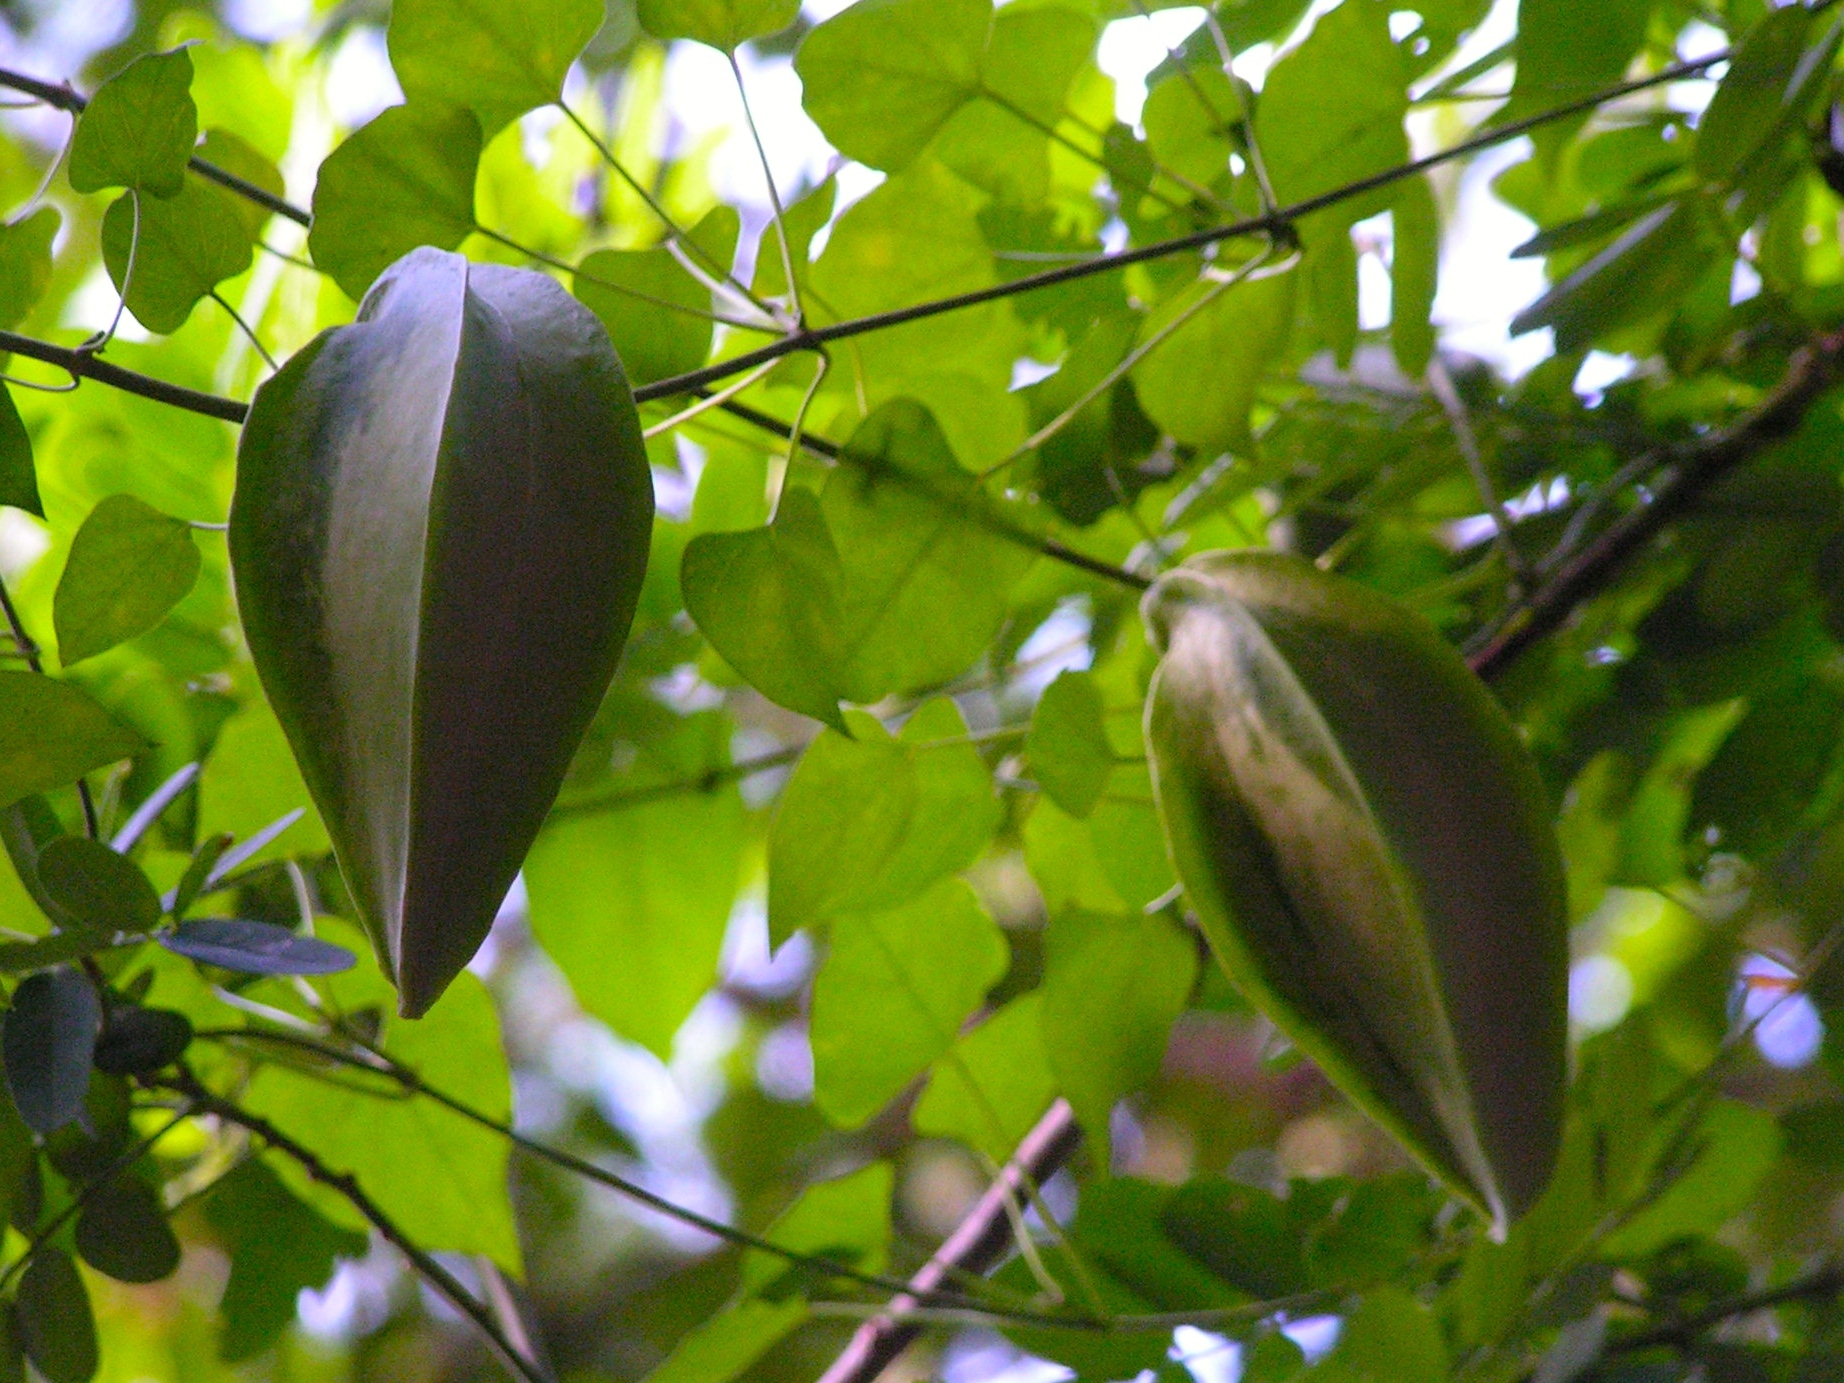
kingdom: Plantae
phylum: Tracheophyta
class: Magnoliopsida
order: Gentianales
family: Apocynaceae
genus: Gonolobus
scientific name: Gonolobus naturalistae
